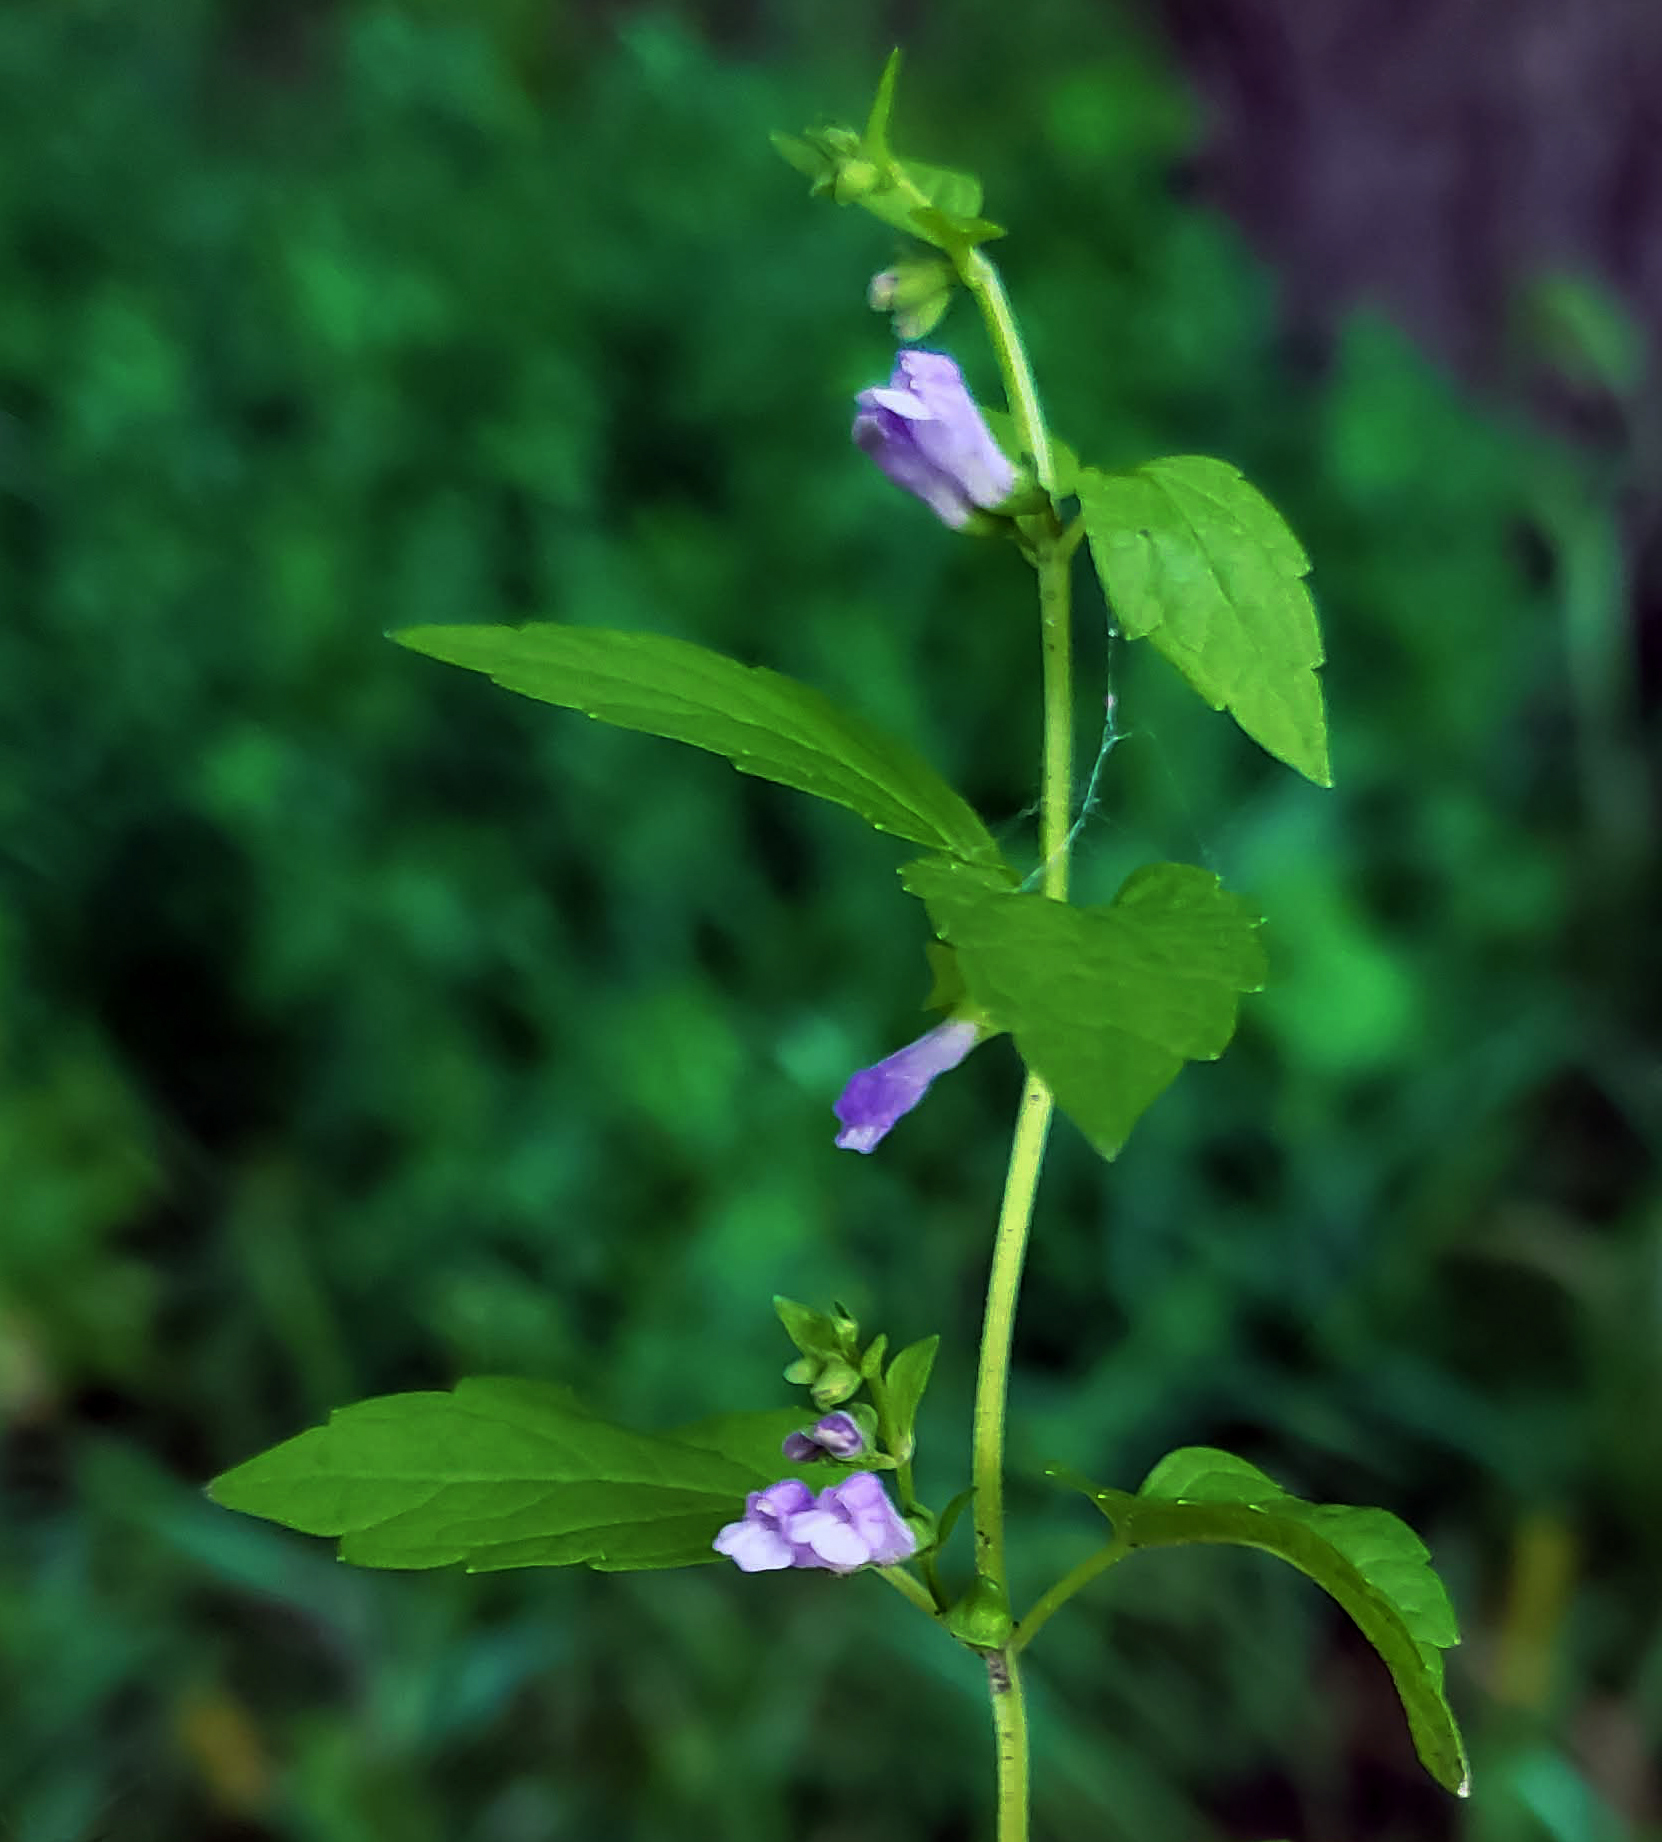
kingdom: Plantae
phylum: Tracheophyta
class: Magnoliopsida
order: Lamiales
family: Lamiaceae
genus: Scutellaria
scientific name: Scutellaria lateriflora
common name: Blue skullcap
